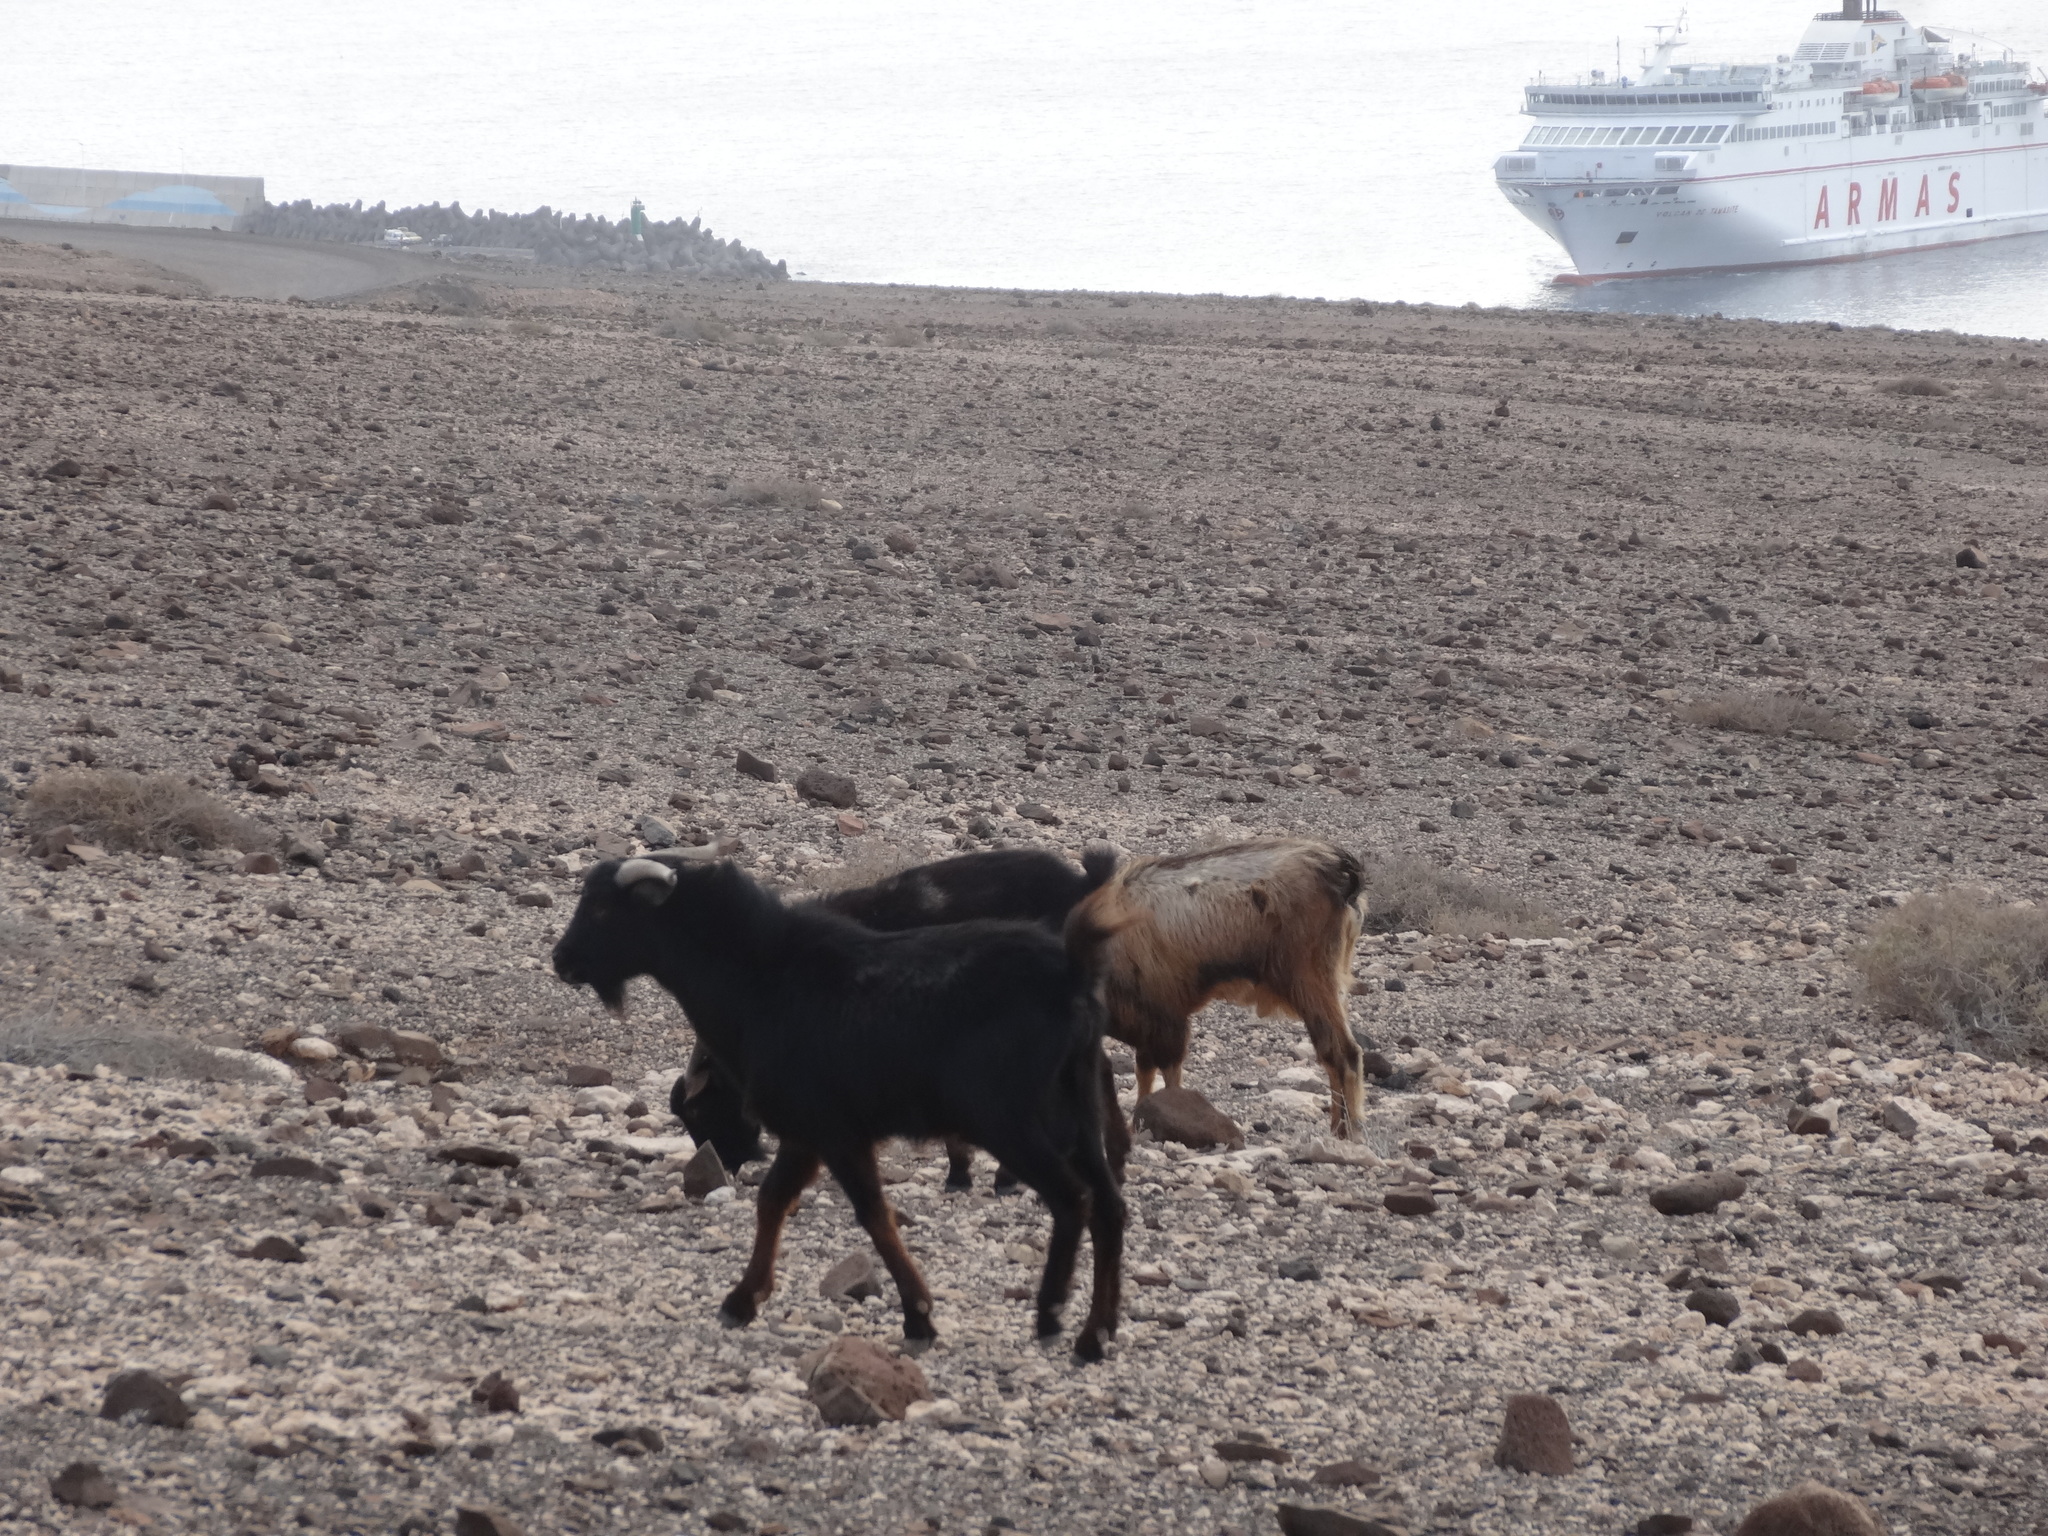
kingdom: Animalia
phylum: Chordata
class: Mammalia
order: Artiodactyla
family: Bovidae
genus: Capra
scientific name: Capra hircus
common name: Domestic goat
